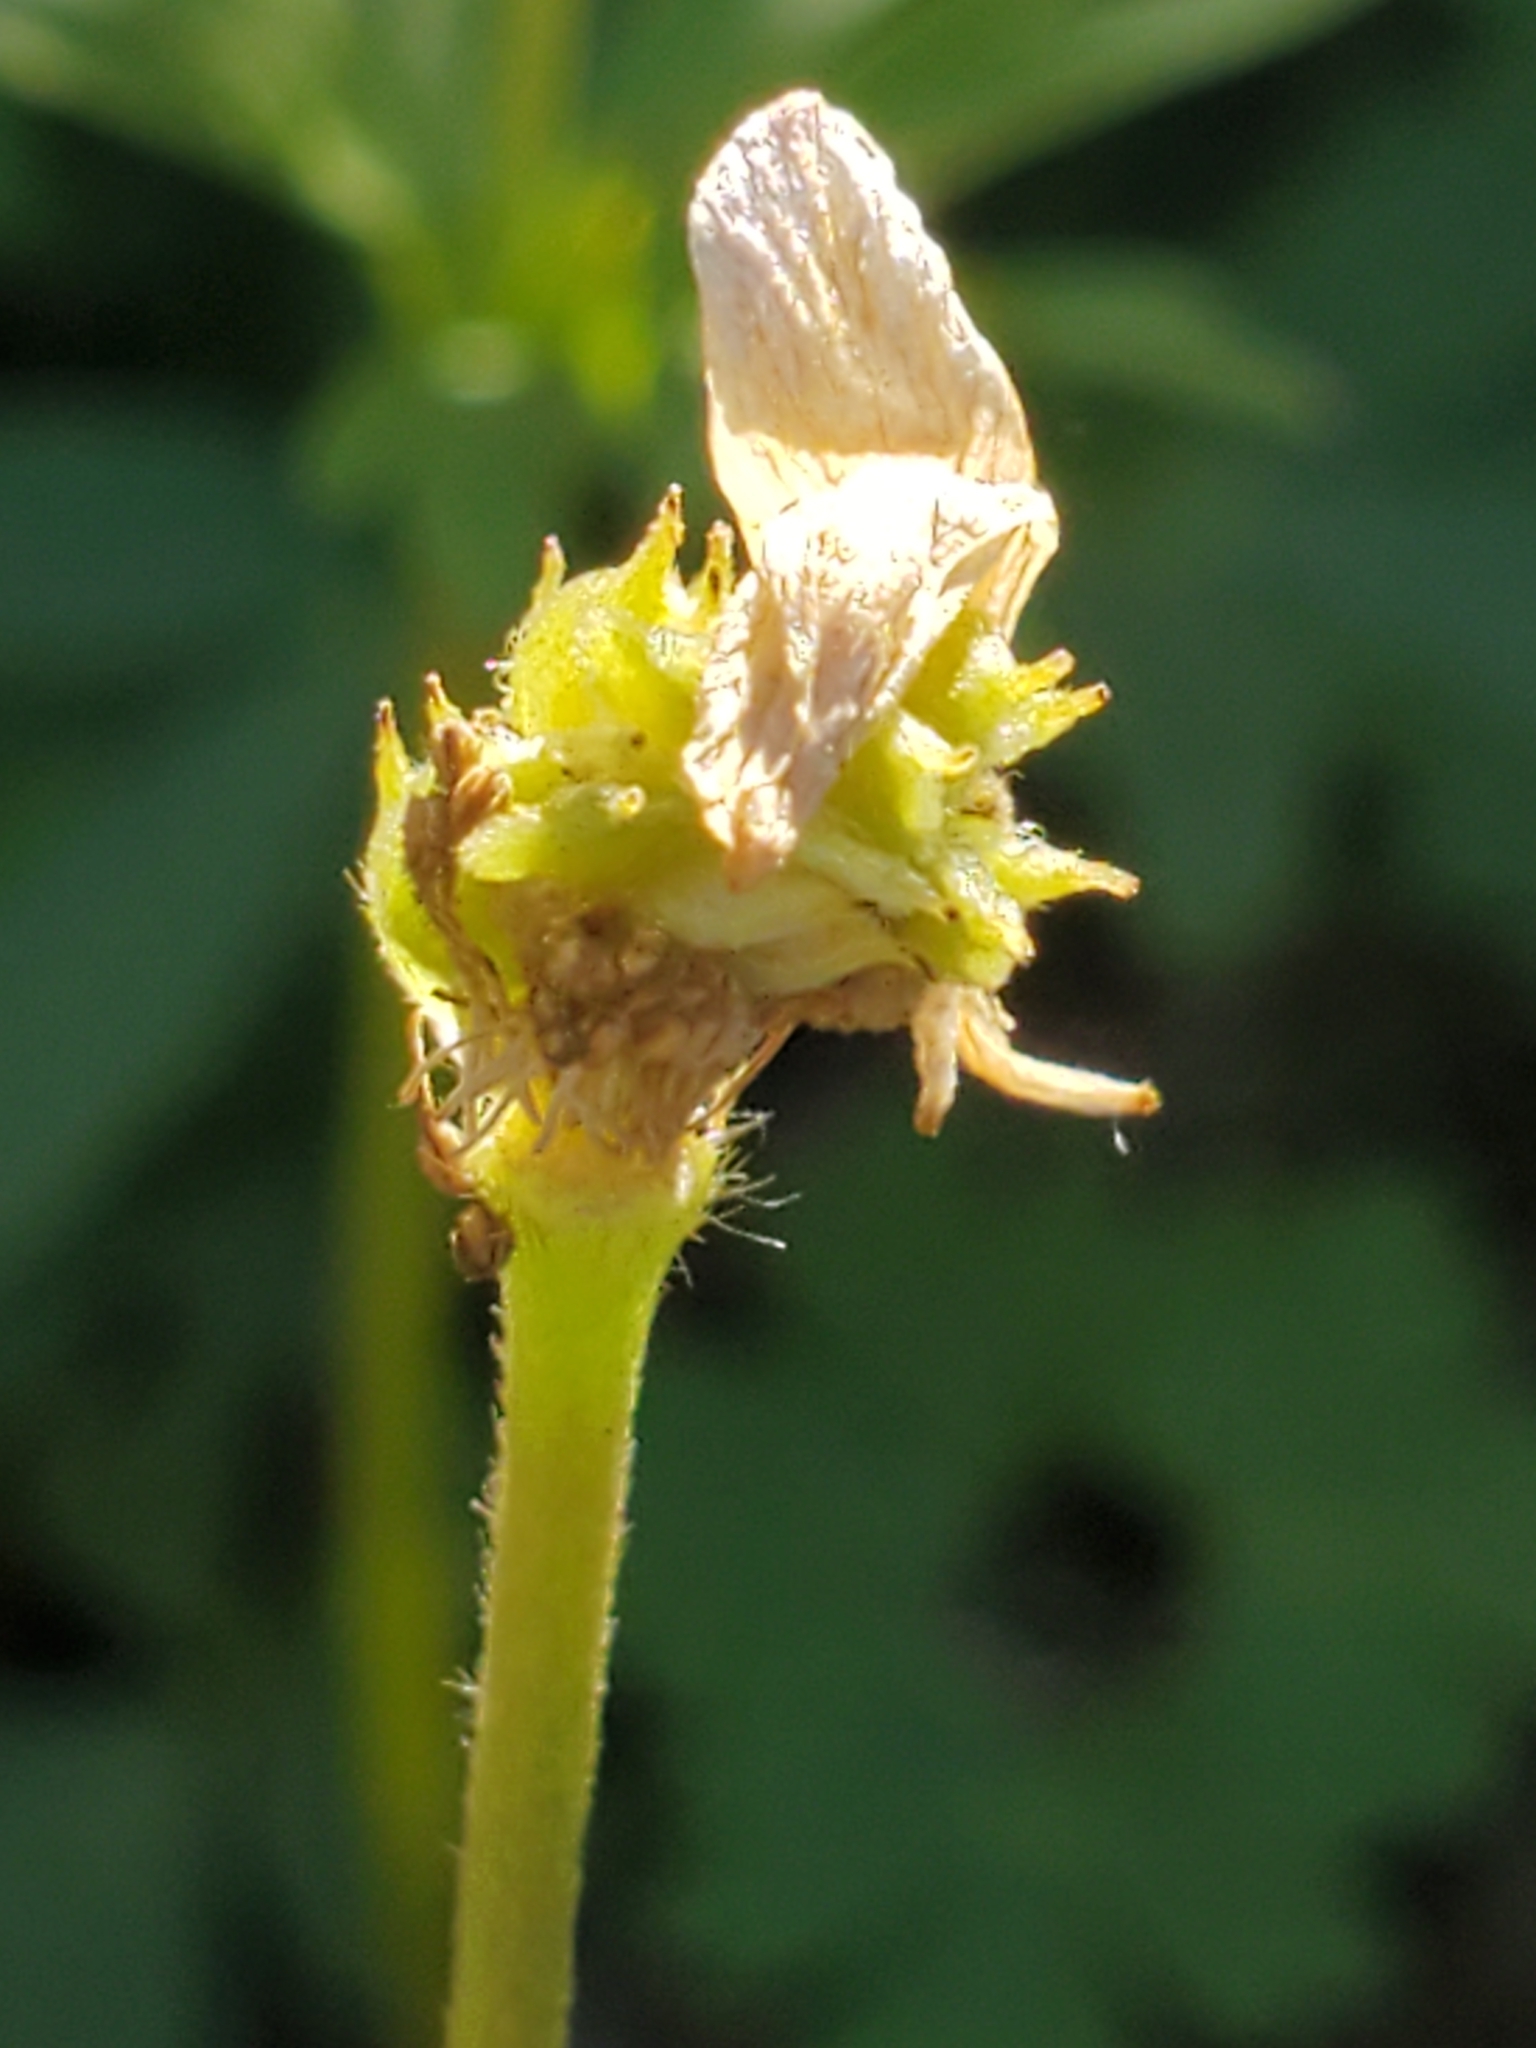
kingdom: Plantae
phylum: Tracheophyta
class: Magnoliopsida
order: Ranunculales
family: Ranunculaceae
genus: Anemone
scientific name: Anemone edwardsiana
